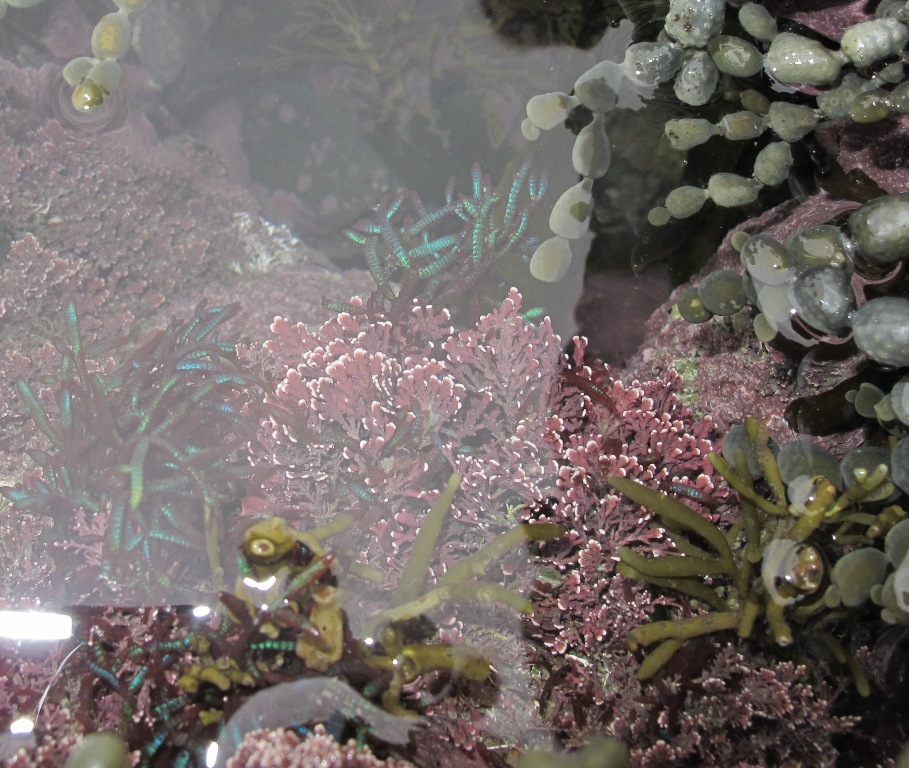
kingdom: Plantae
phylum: Rhodophyta
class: Florideophyceae
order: Rhodymeniales
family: Champiaceae
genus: Champia
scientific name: Champia laingii
